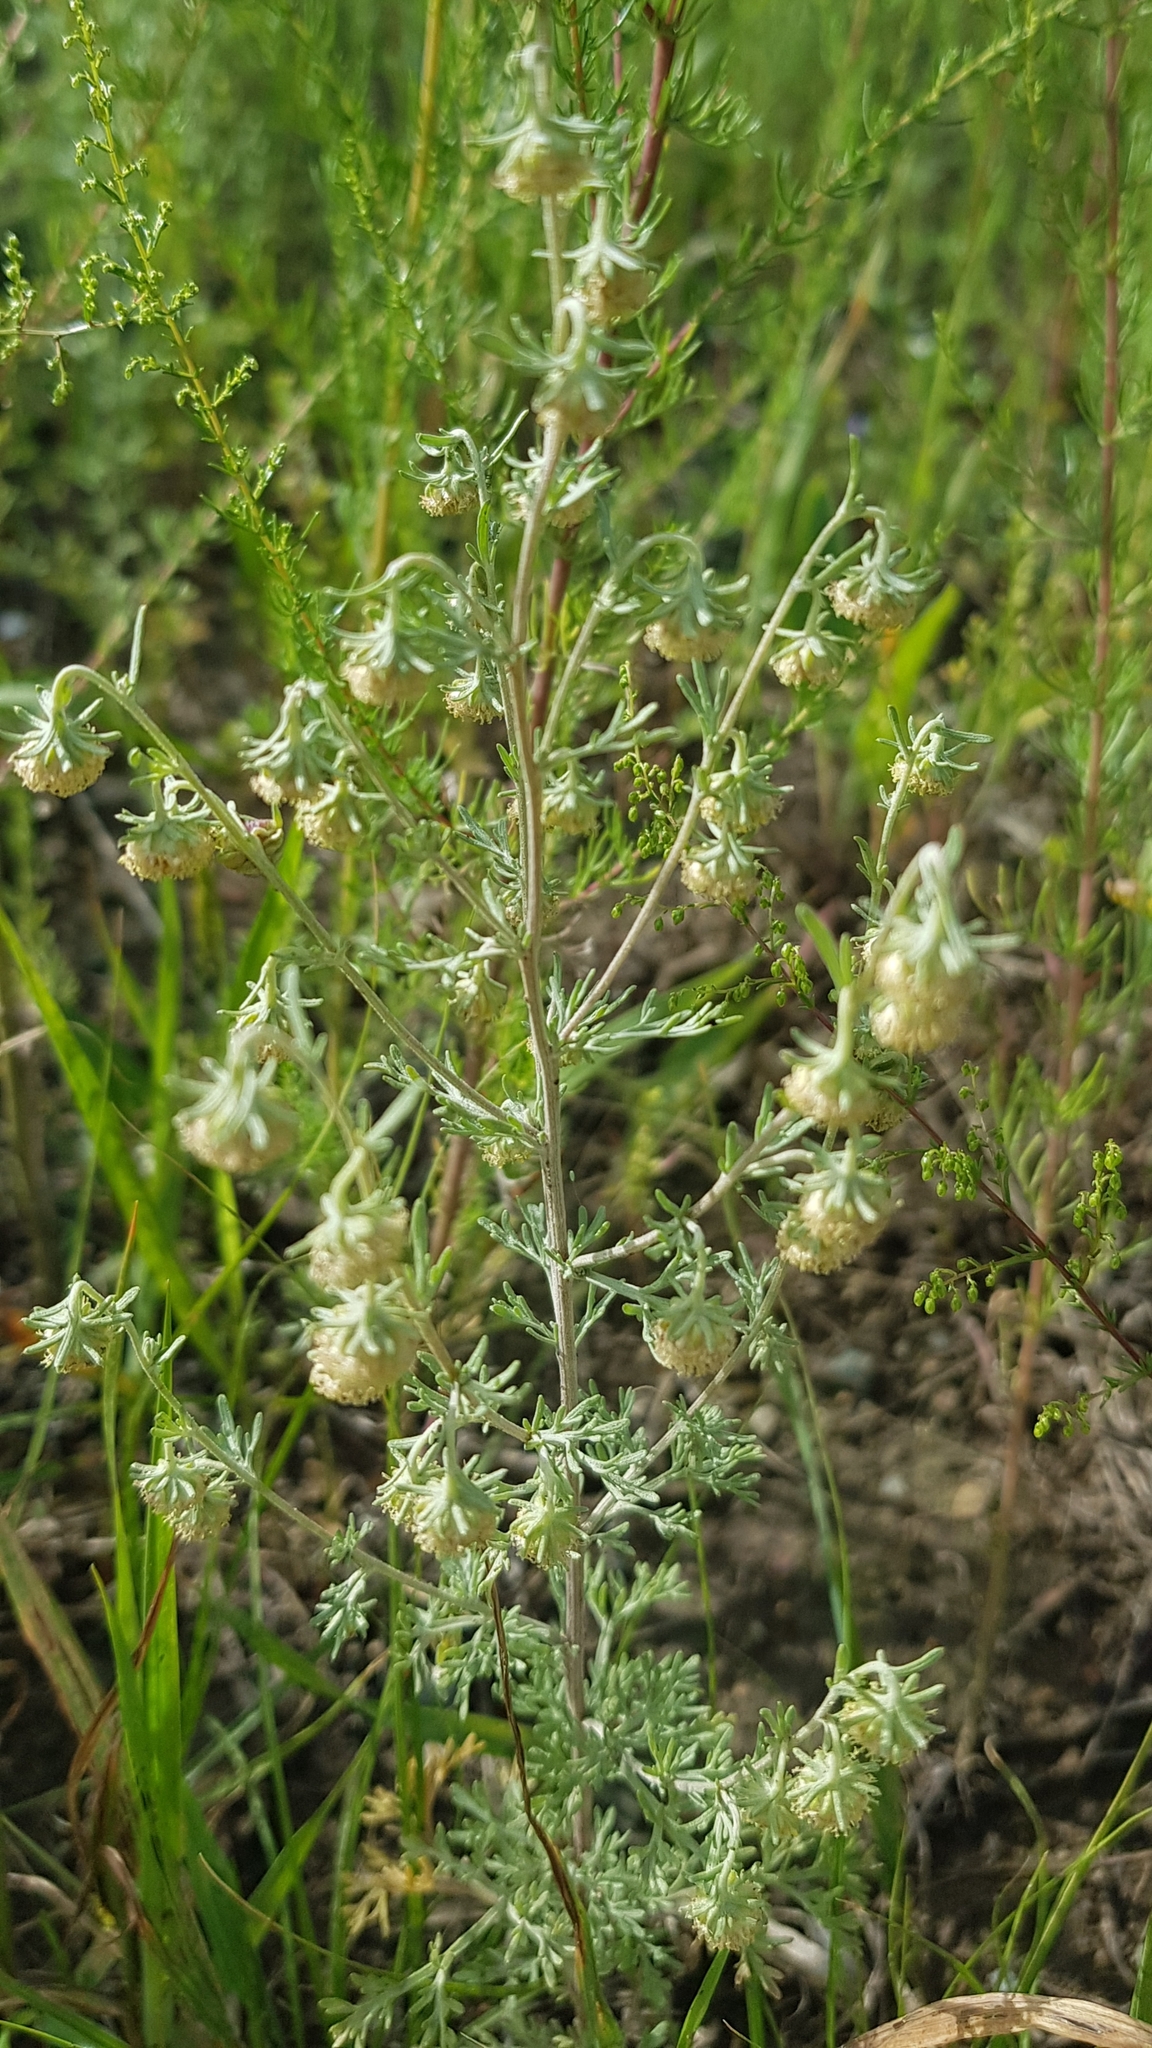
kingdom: Plantae
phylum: Tracheophyta
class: Magnoliopsida
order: Asterales
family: Asteraceae
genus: Artemisia
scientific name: Artemisia sieversiana
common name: Sieversian wormwood
